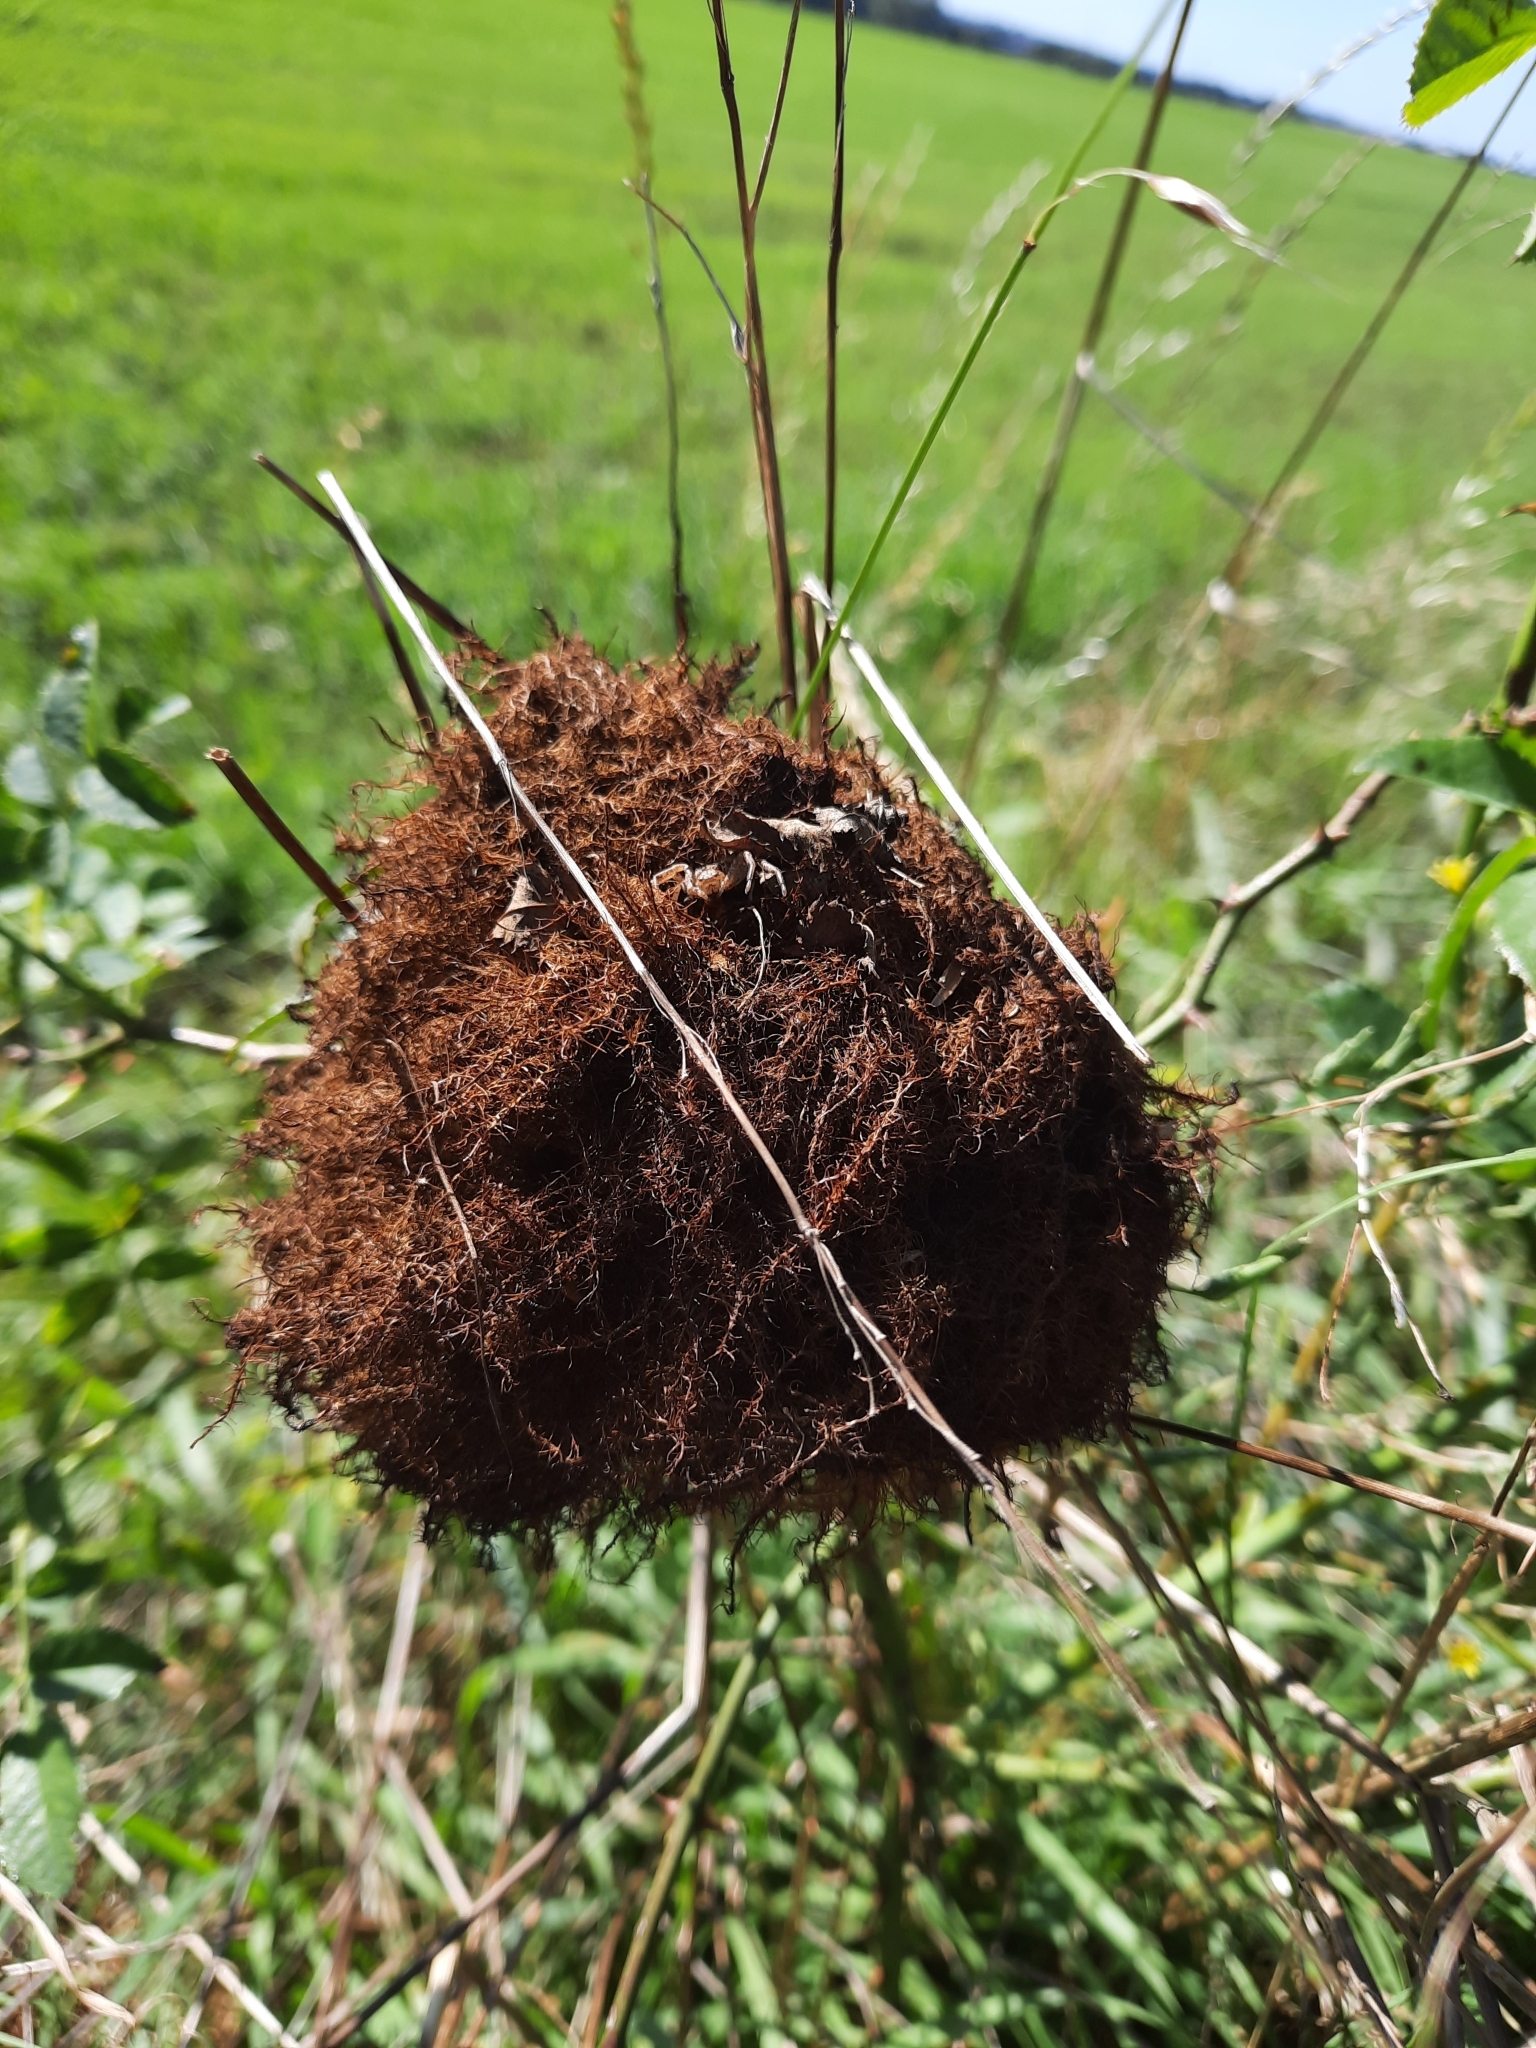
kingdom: Animalia
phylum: Arthropoda
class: Insecta
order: Hymenoptera
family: Cynipidae
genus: Diplolepis
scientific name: Diplolepis rosae
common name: Bedeguar gall
